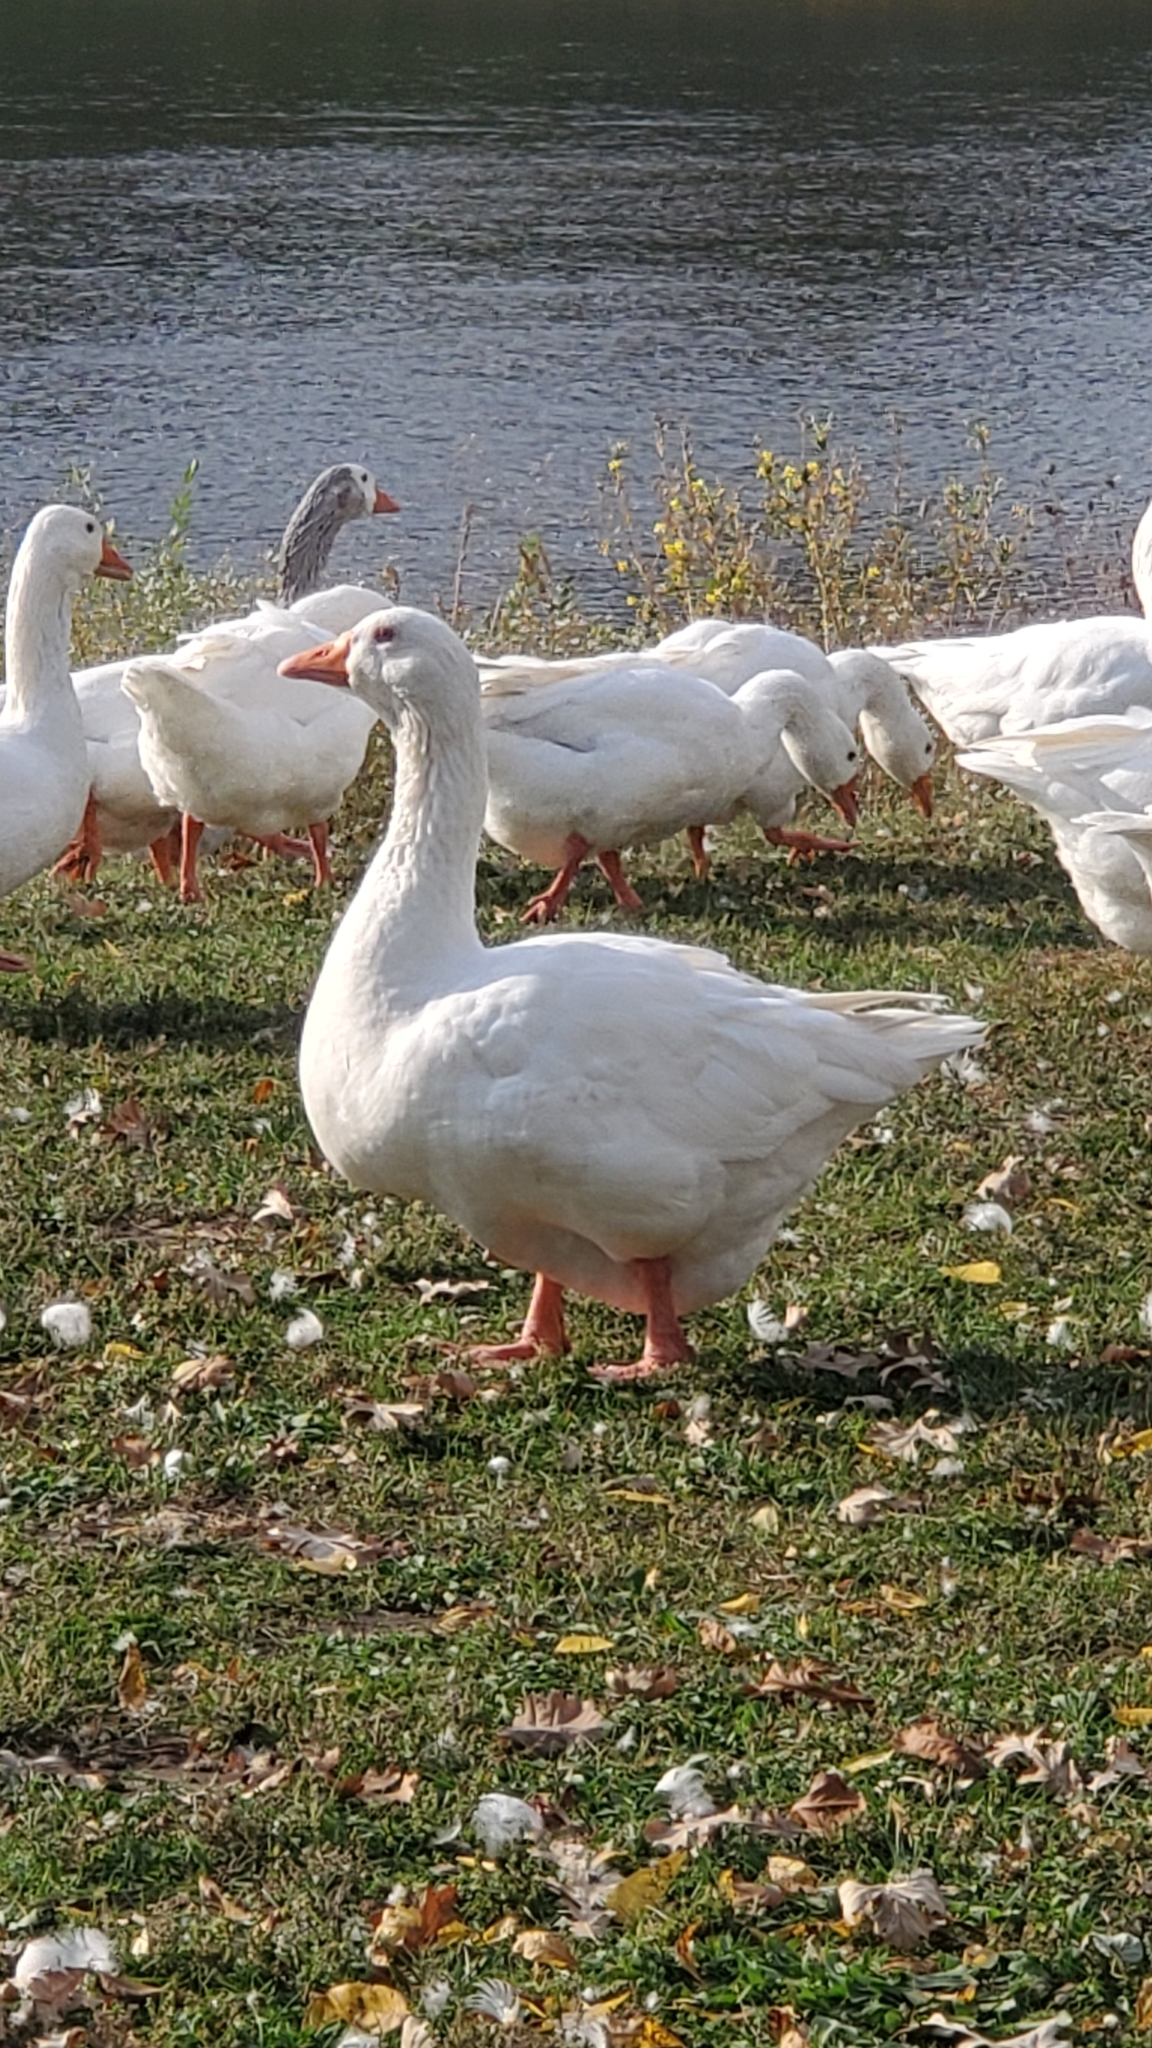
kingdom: Animalia
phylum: Chordata
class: Aves
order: Anseriformes
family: Anatidae
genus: Anser
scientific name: Anser anser
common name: Greylag goose
